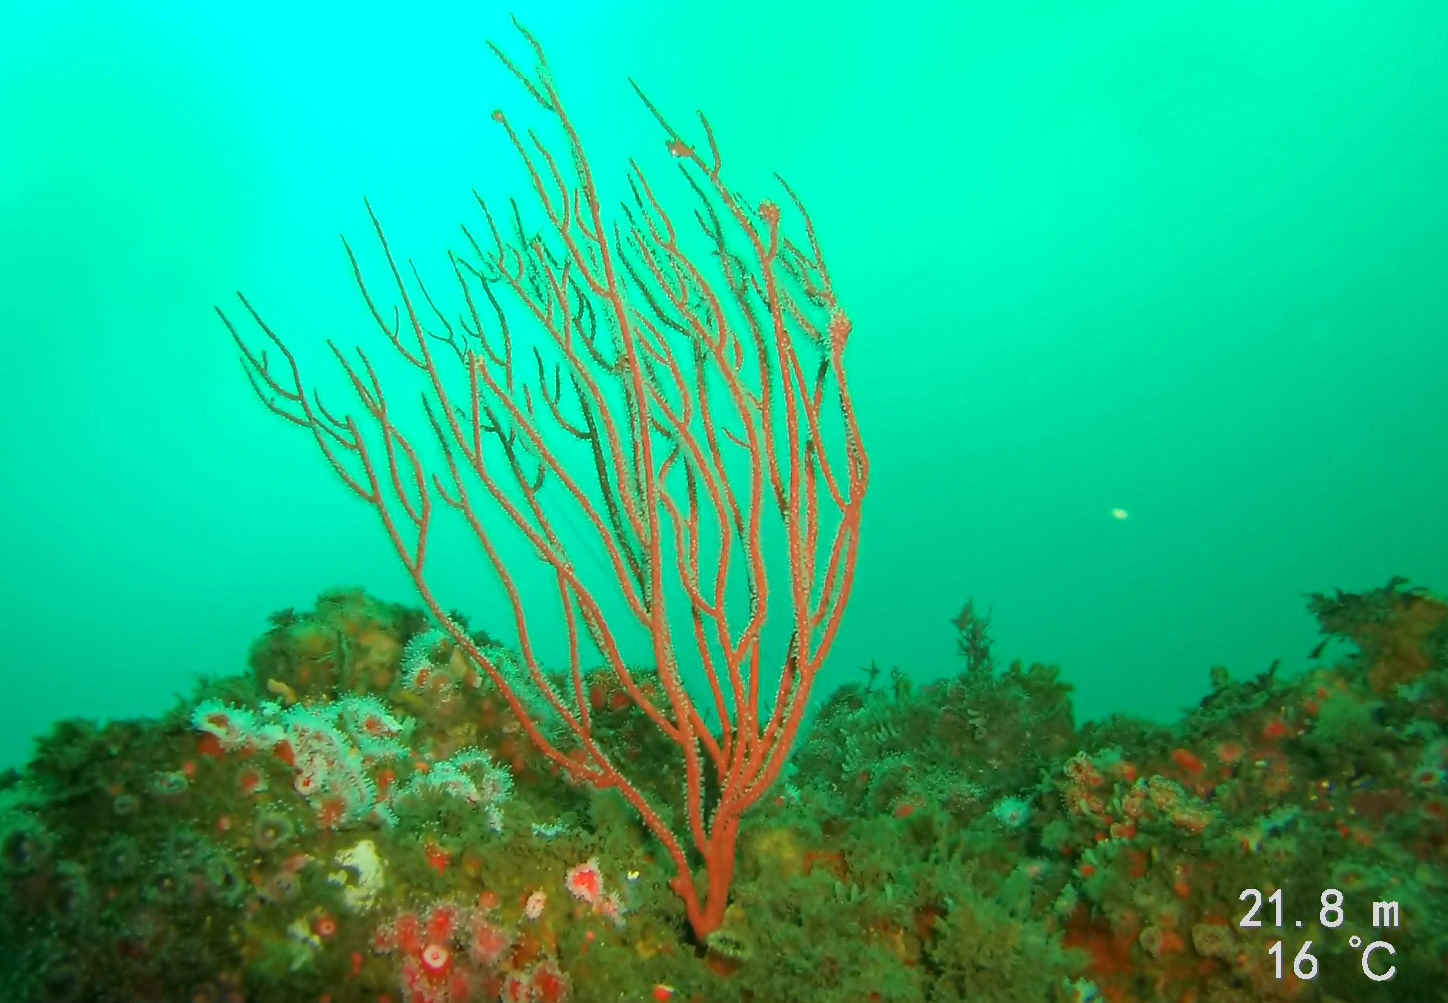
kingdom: Animalia
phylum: Cnidaria
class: Anthozoa
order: Malacalcyonacea
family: Gorgoniidae
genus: Leptogorgia
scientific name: Leptogorgia chilensis
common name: Carmine sea spray
